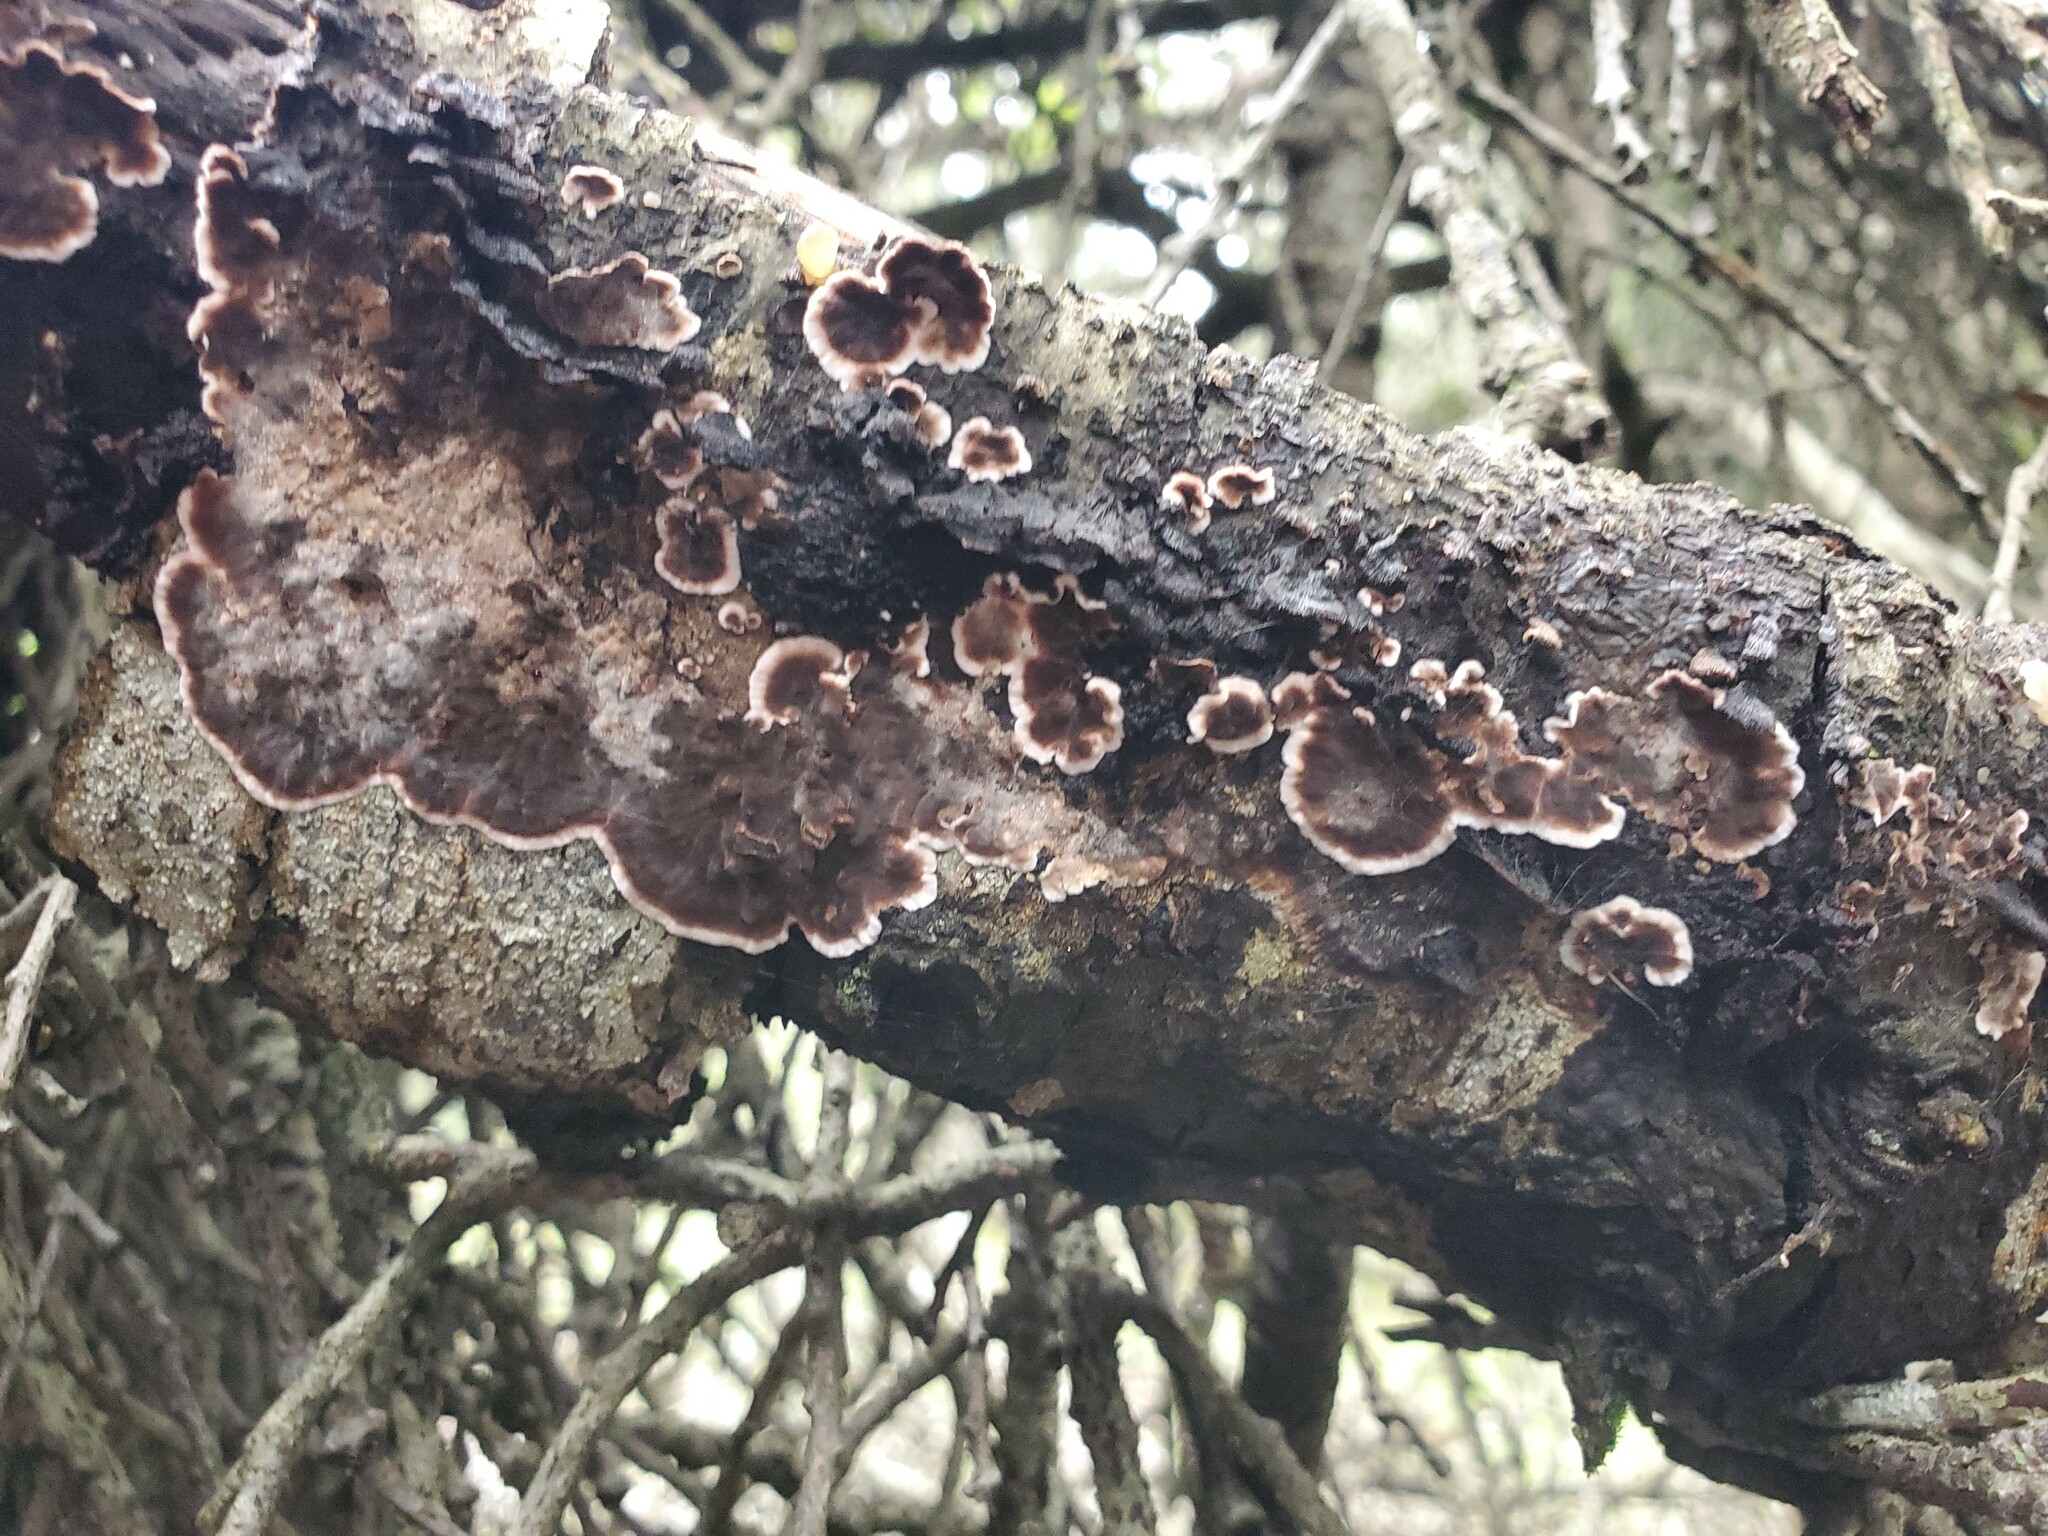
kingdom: Fungi
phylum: Basidiomycota
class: Agaricomycetes
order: Russulales
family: Peniophoraceae
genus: Peniophora
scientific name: Peniophora albobadia
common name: Giraffe spots
